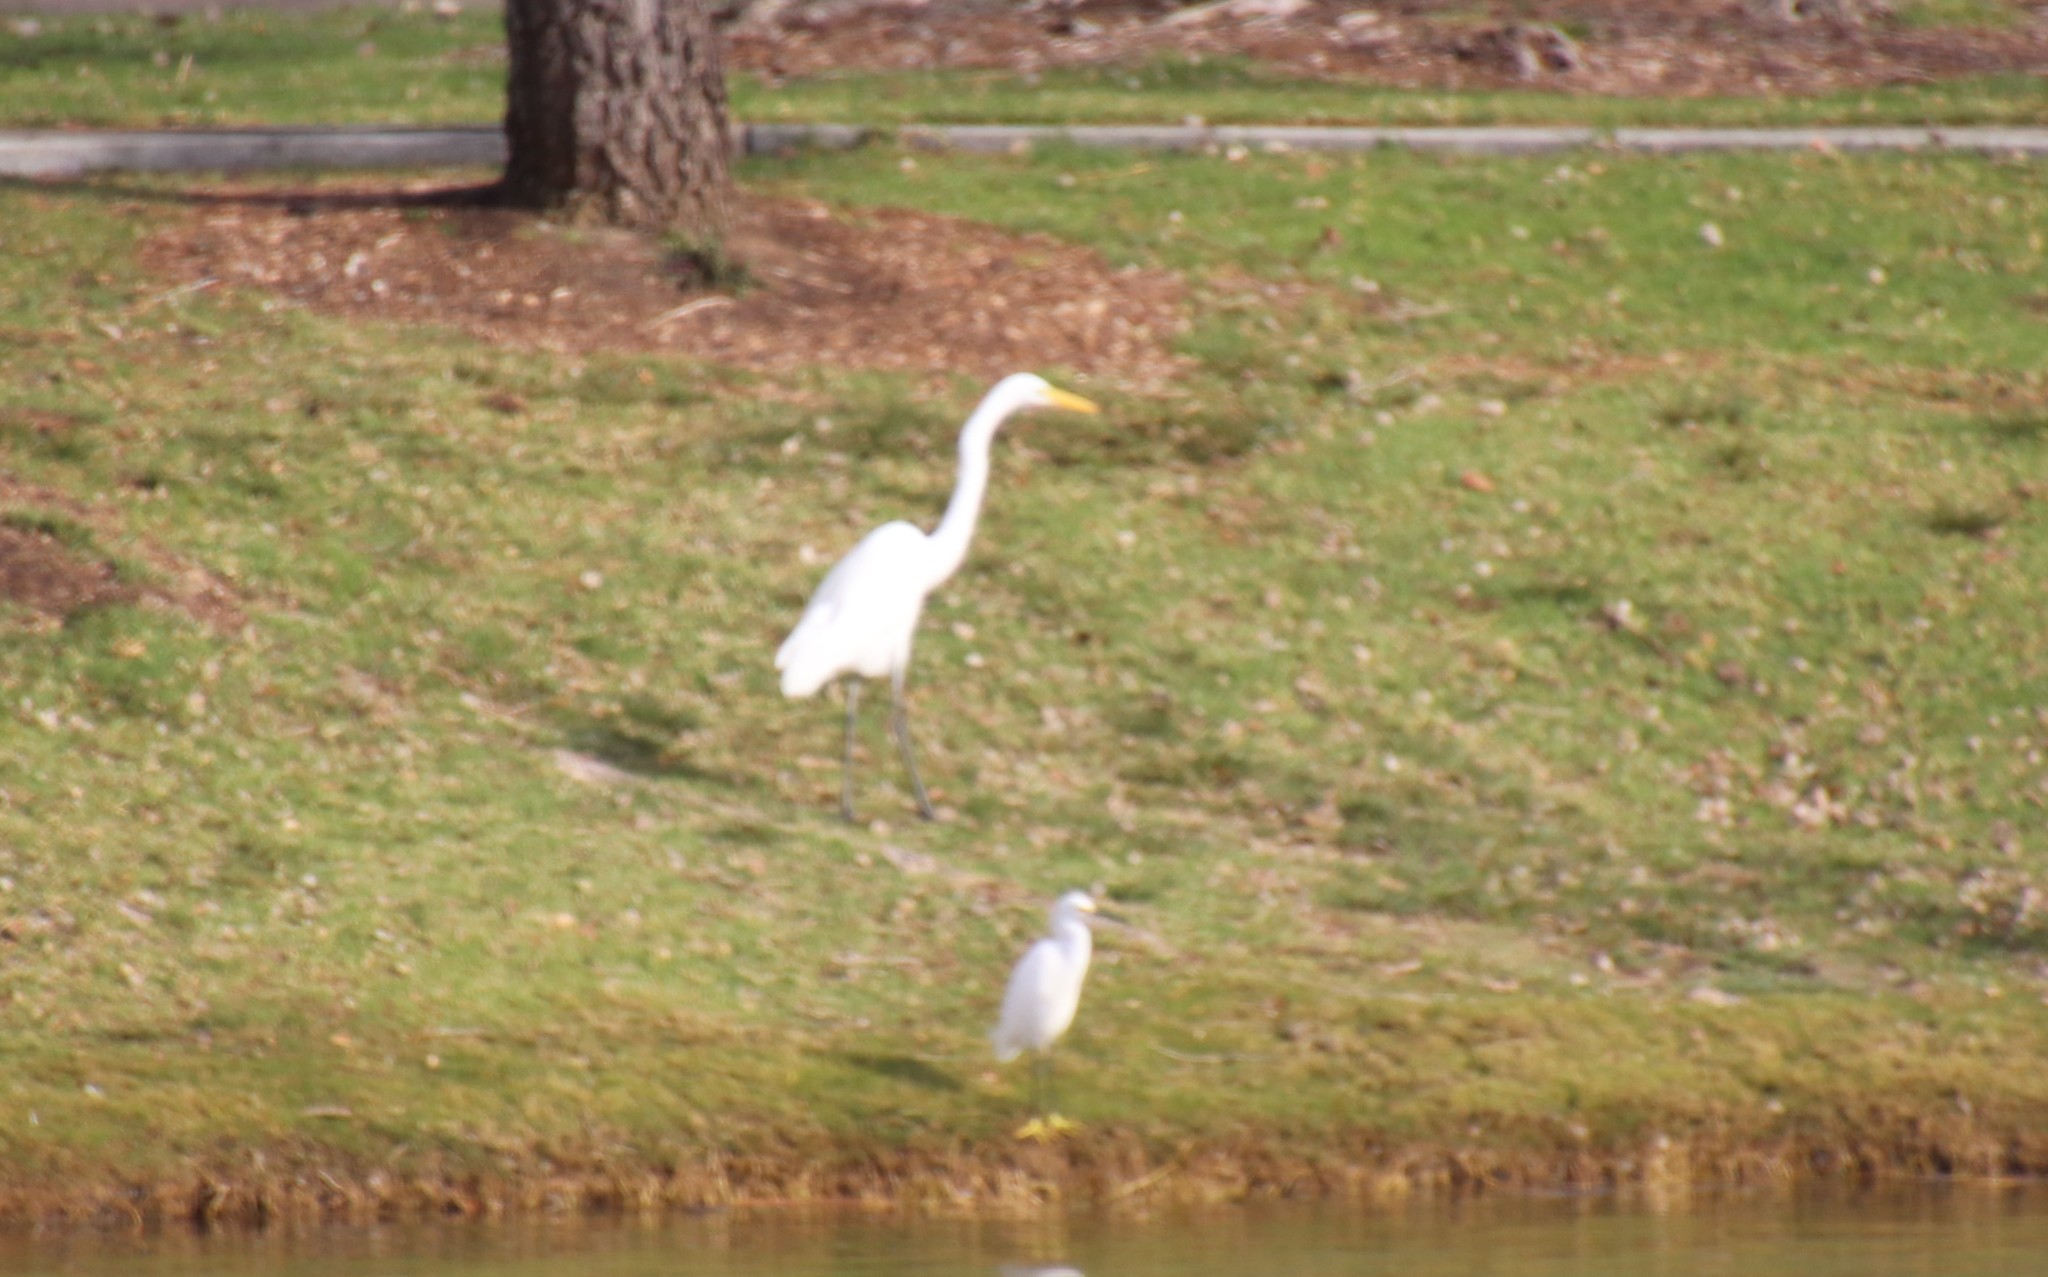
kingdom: Animalia
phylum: Chordata
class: Aves
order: Pelecaniformes
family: Ardeidae
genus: Ardea
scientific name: Ardea alba
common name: Great egret
